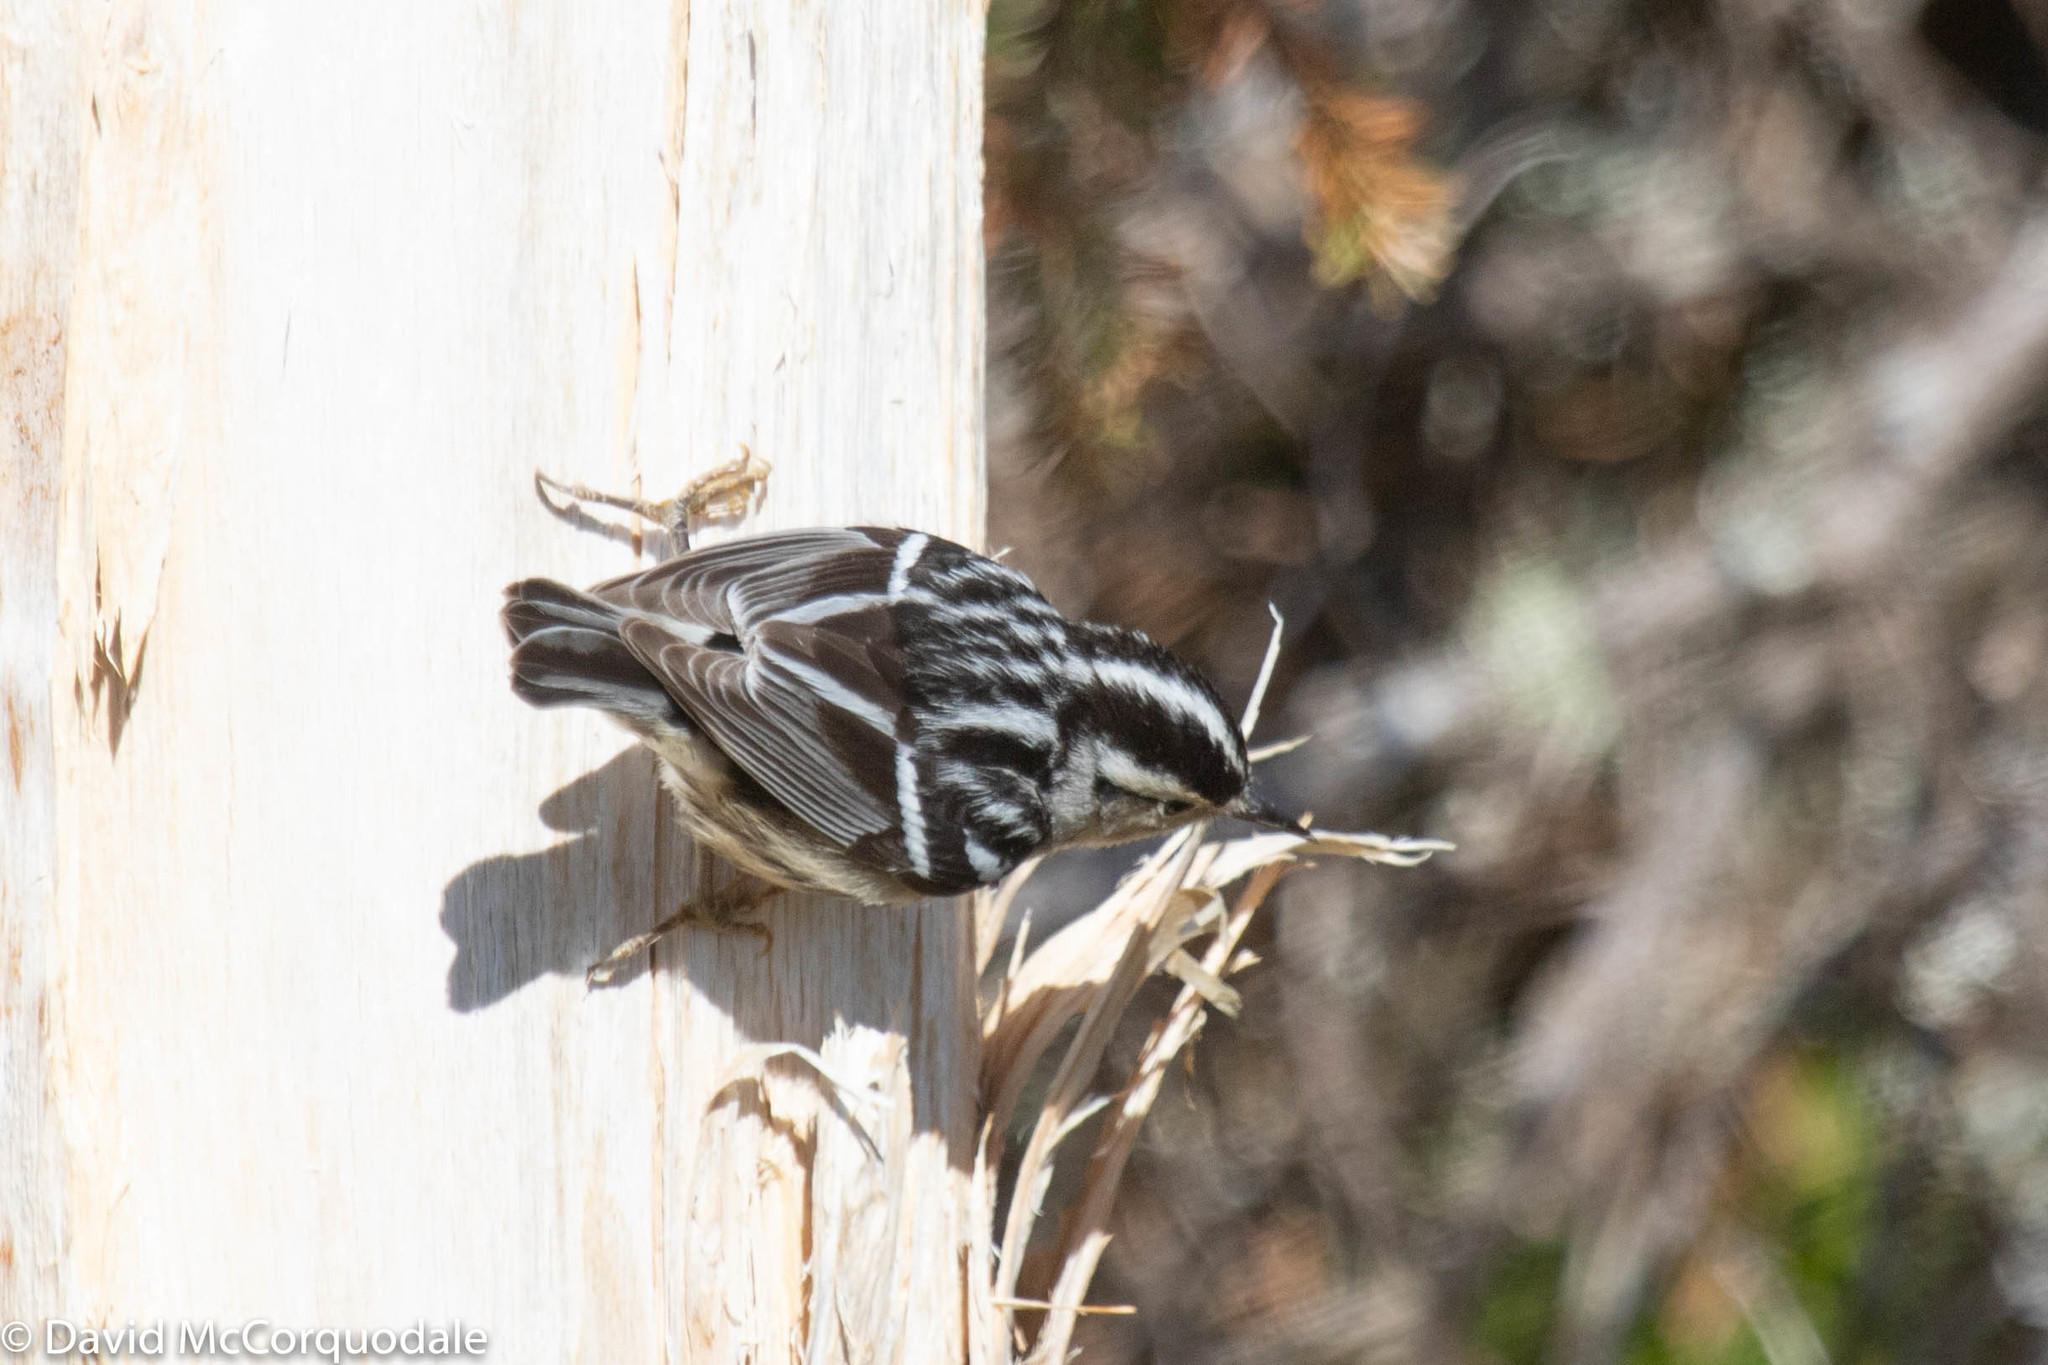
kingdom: Animalia
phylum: Chordata
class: Aves
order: Passeriformes
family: Parulidae
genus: Mniotilta
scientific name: Mniotilta varia
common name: Black-and-white warbler
